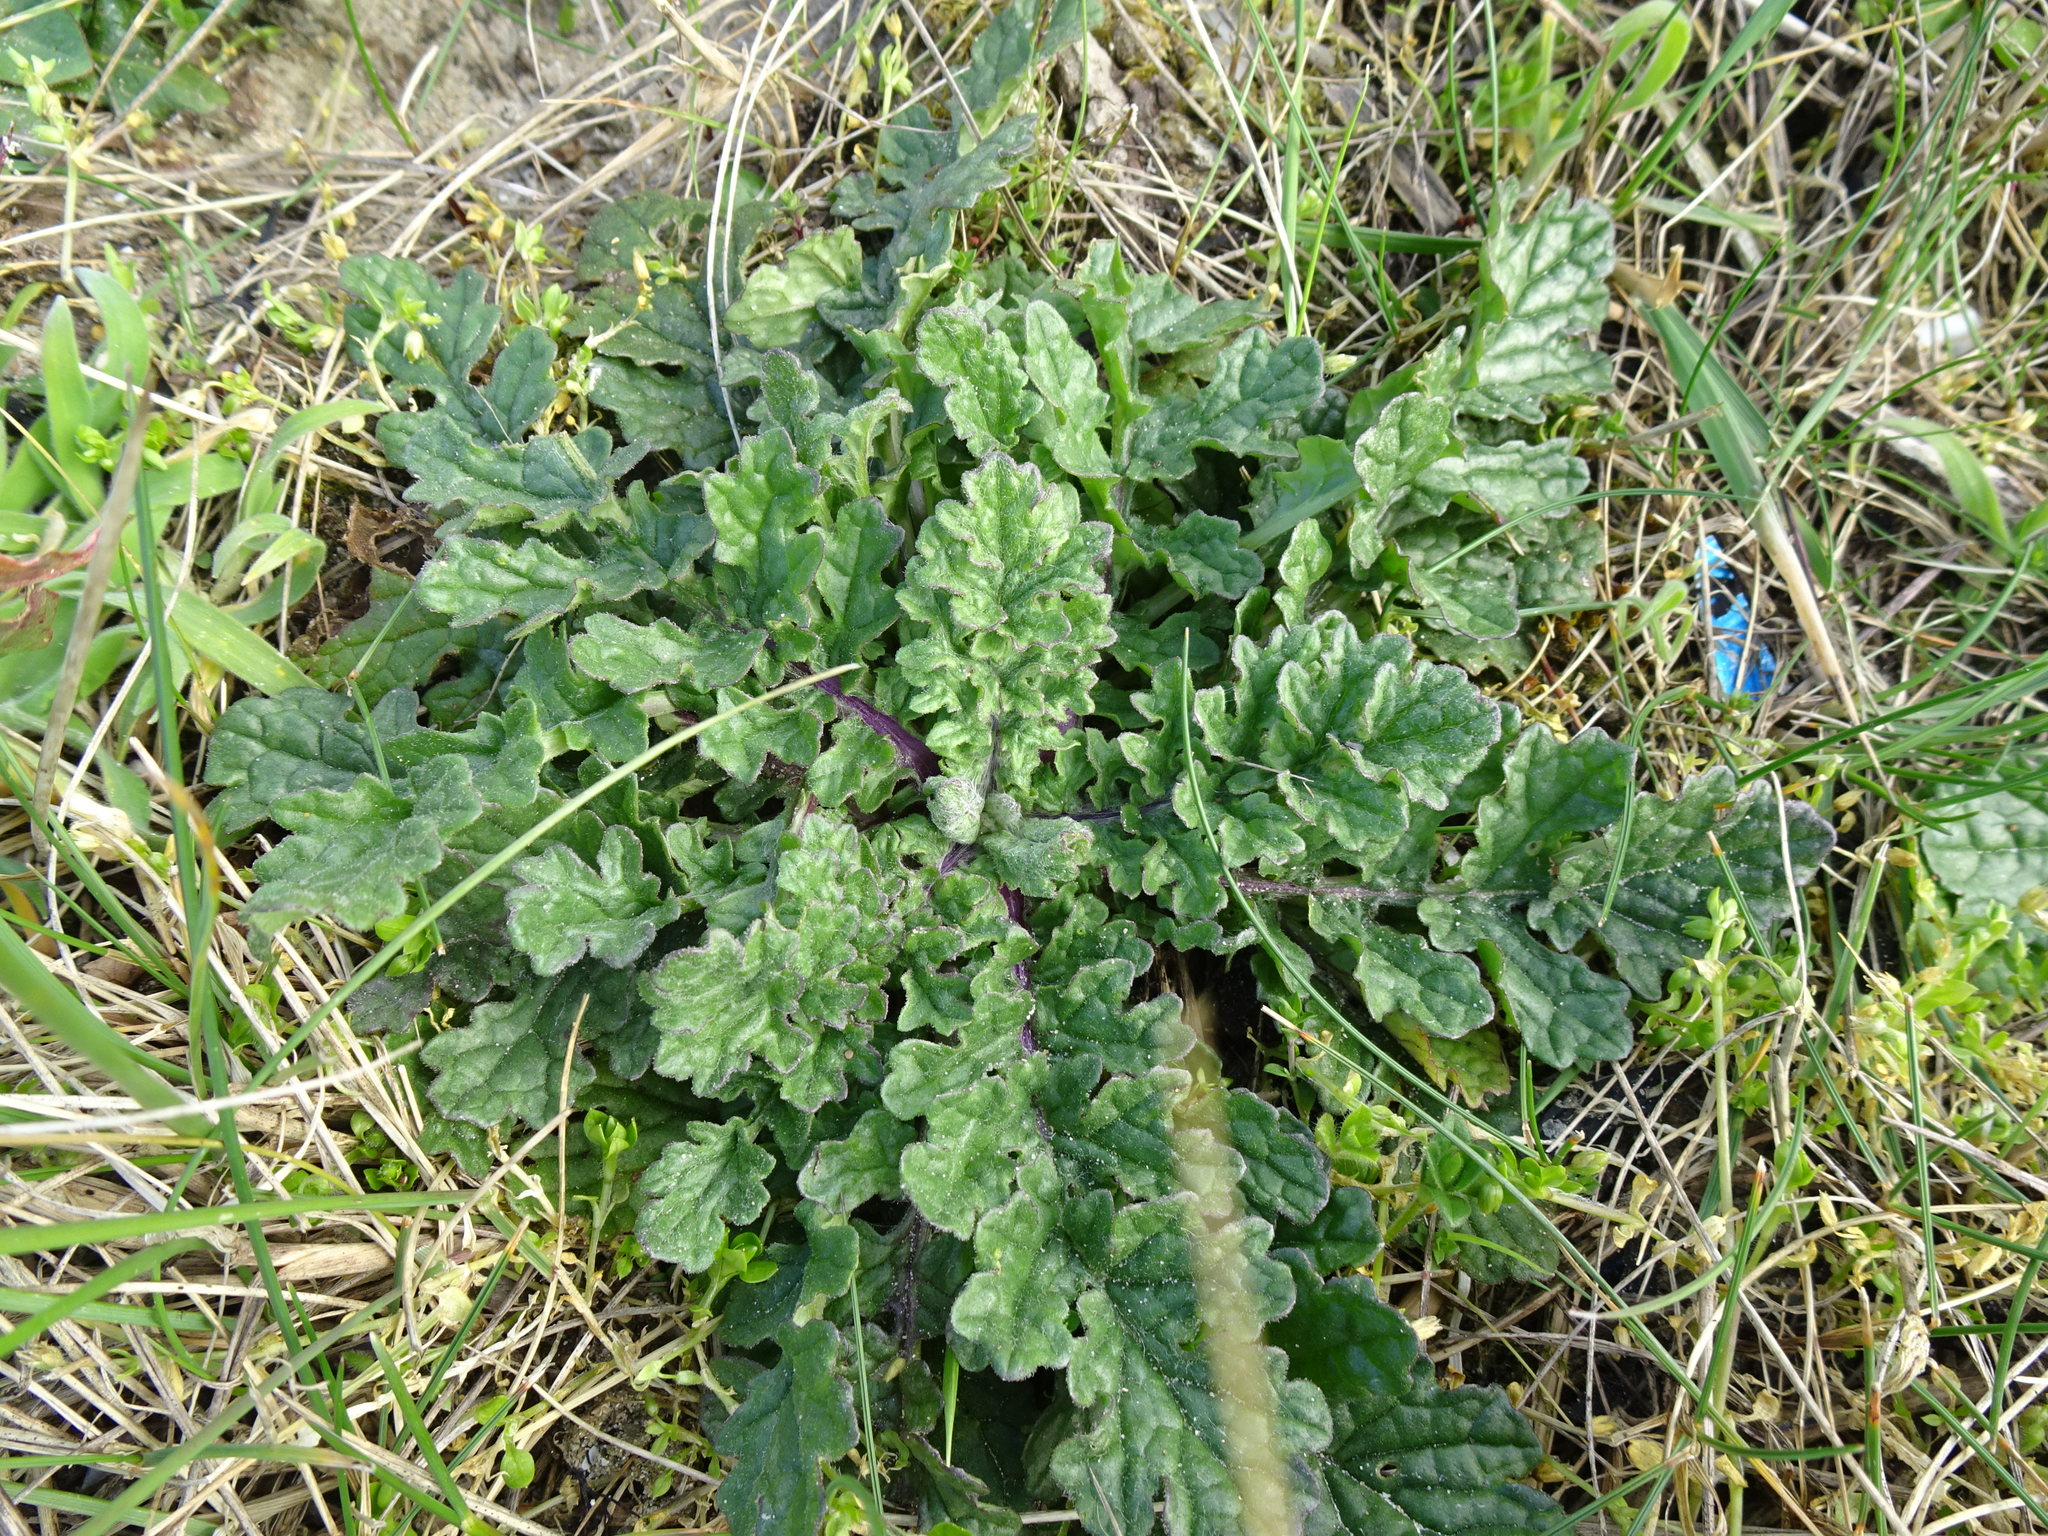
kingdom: Plantae
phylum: Tracheophyta
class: Magnoliopsida
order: Asterales
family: Asteraceae
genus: Jacobaea
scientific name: Jacobaea vulgaris
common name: Stinking willie
